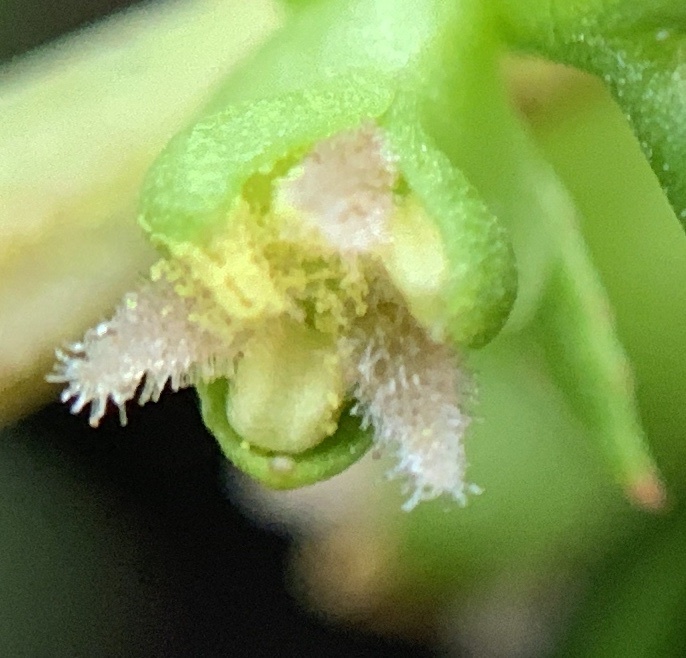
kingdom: Plantae
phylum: Tracheophyta
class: Magnoliopsida
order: Saxifragales
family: Haloragaceae
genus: Proserpinaca
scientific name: Proserpinaca pectinata
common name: Comb-leaved mermaidweed
